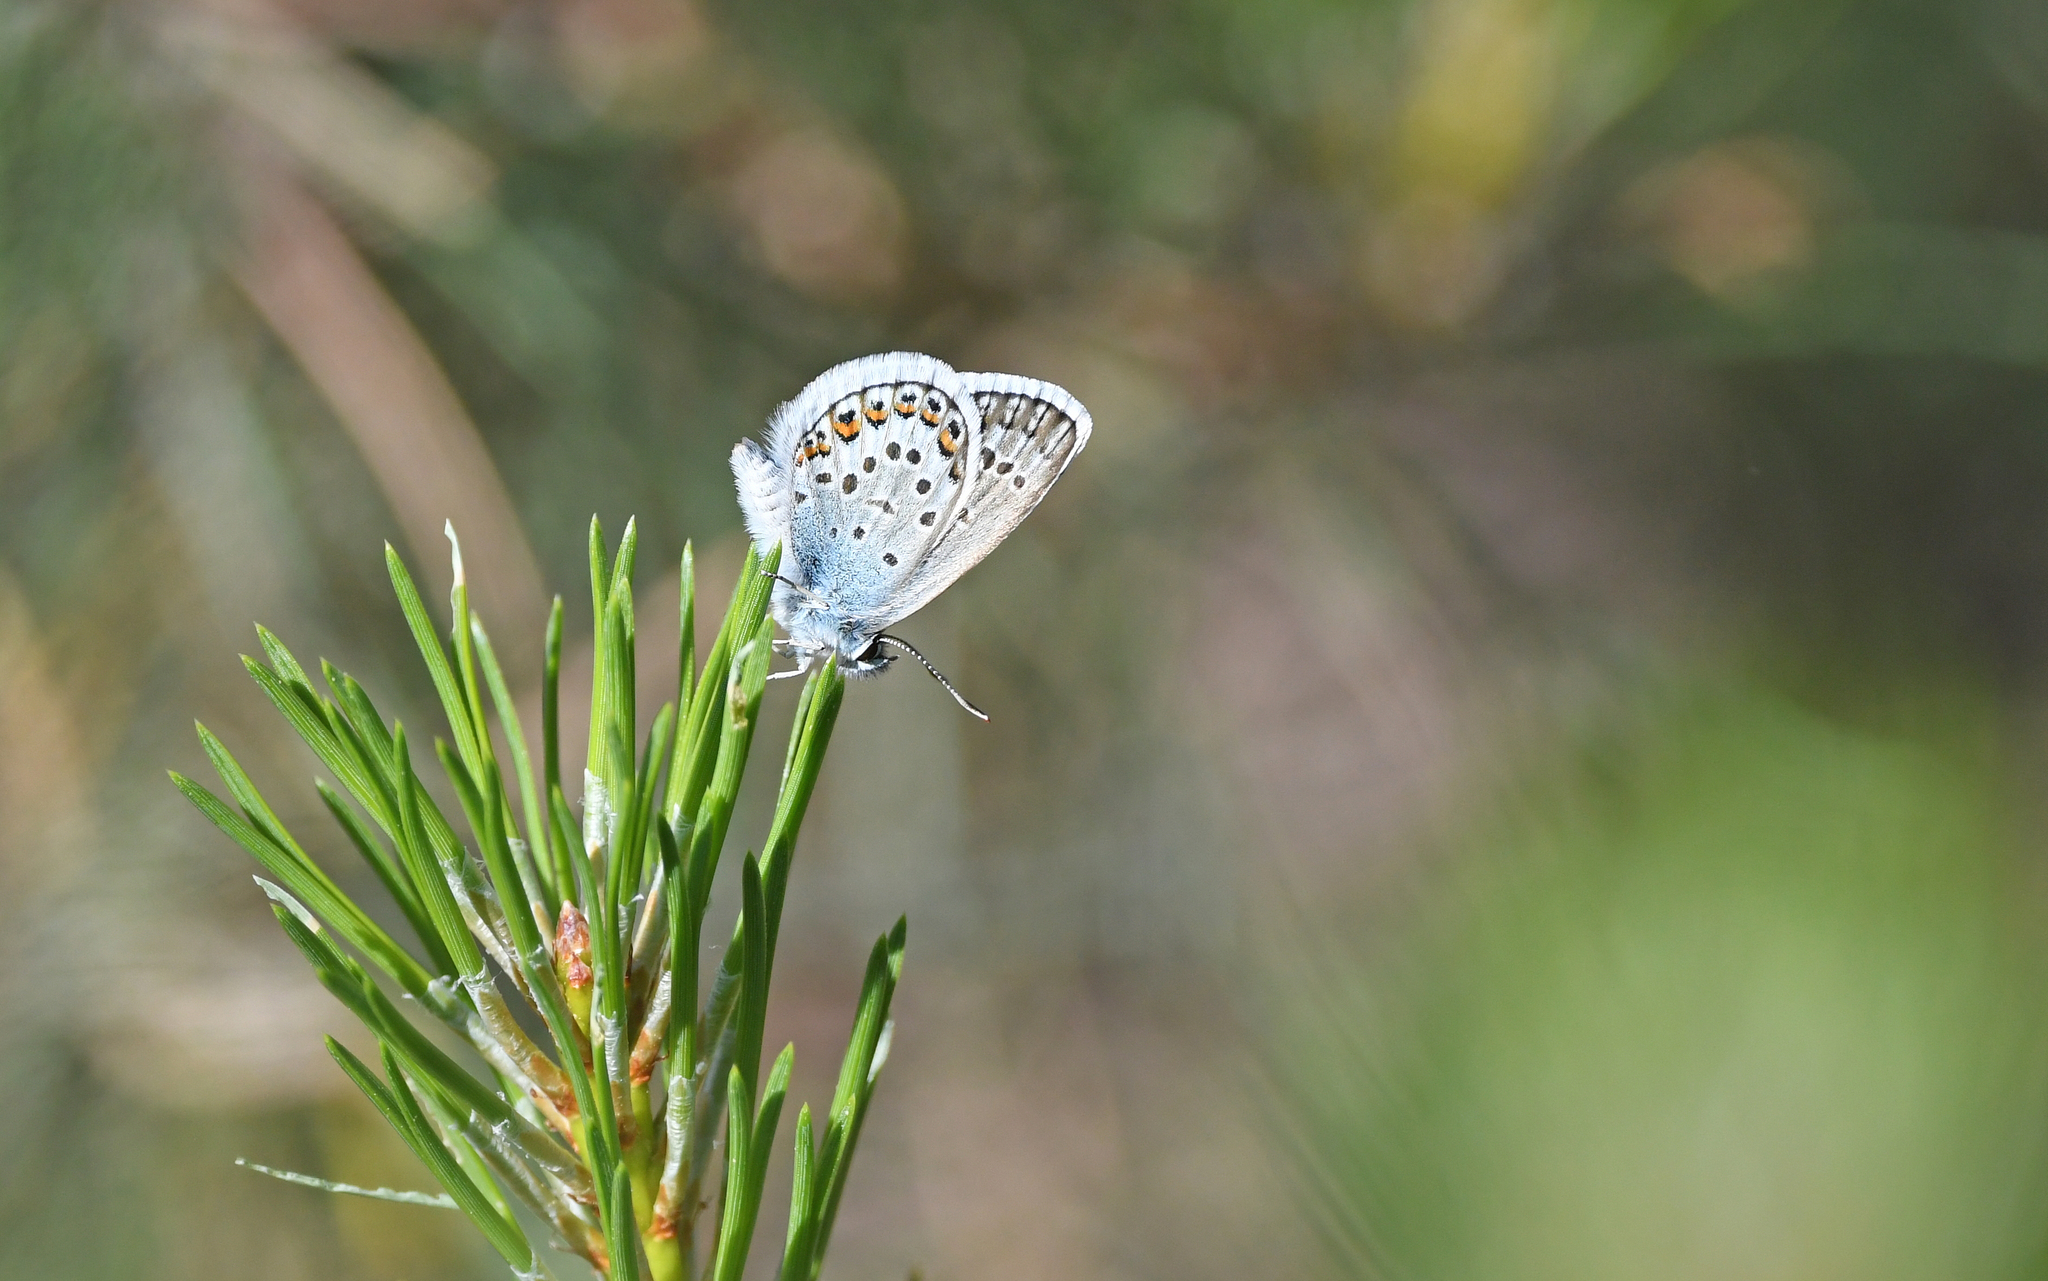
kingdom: Animalia
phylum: Arthropoda
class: Insecta
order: Lepidoptera
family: Lycaenidae
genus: Plebejus
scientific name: Plebejus argus
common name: Silver-studded blue
